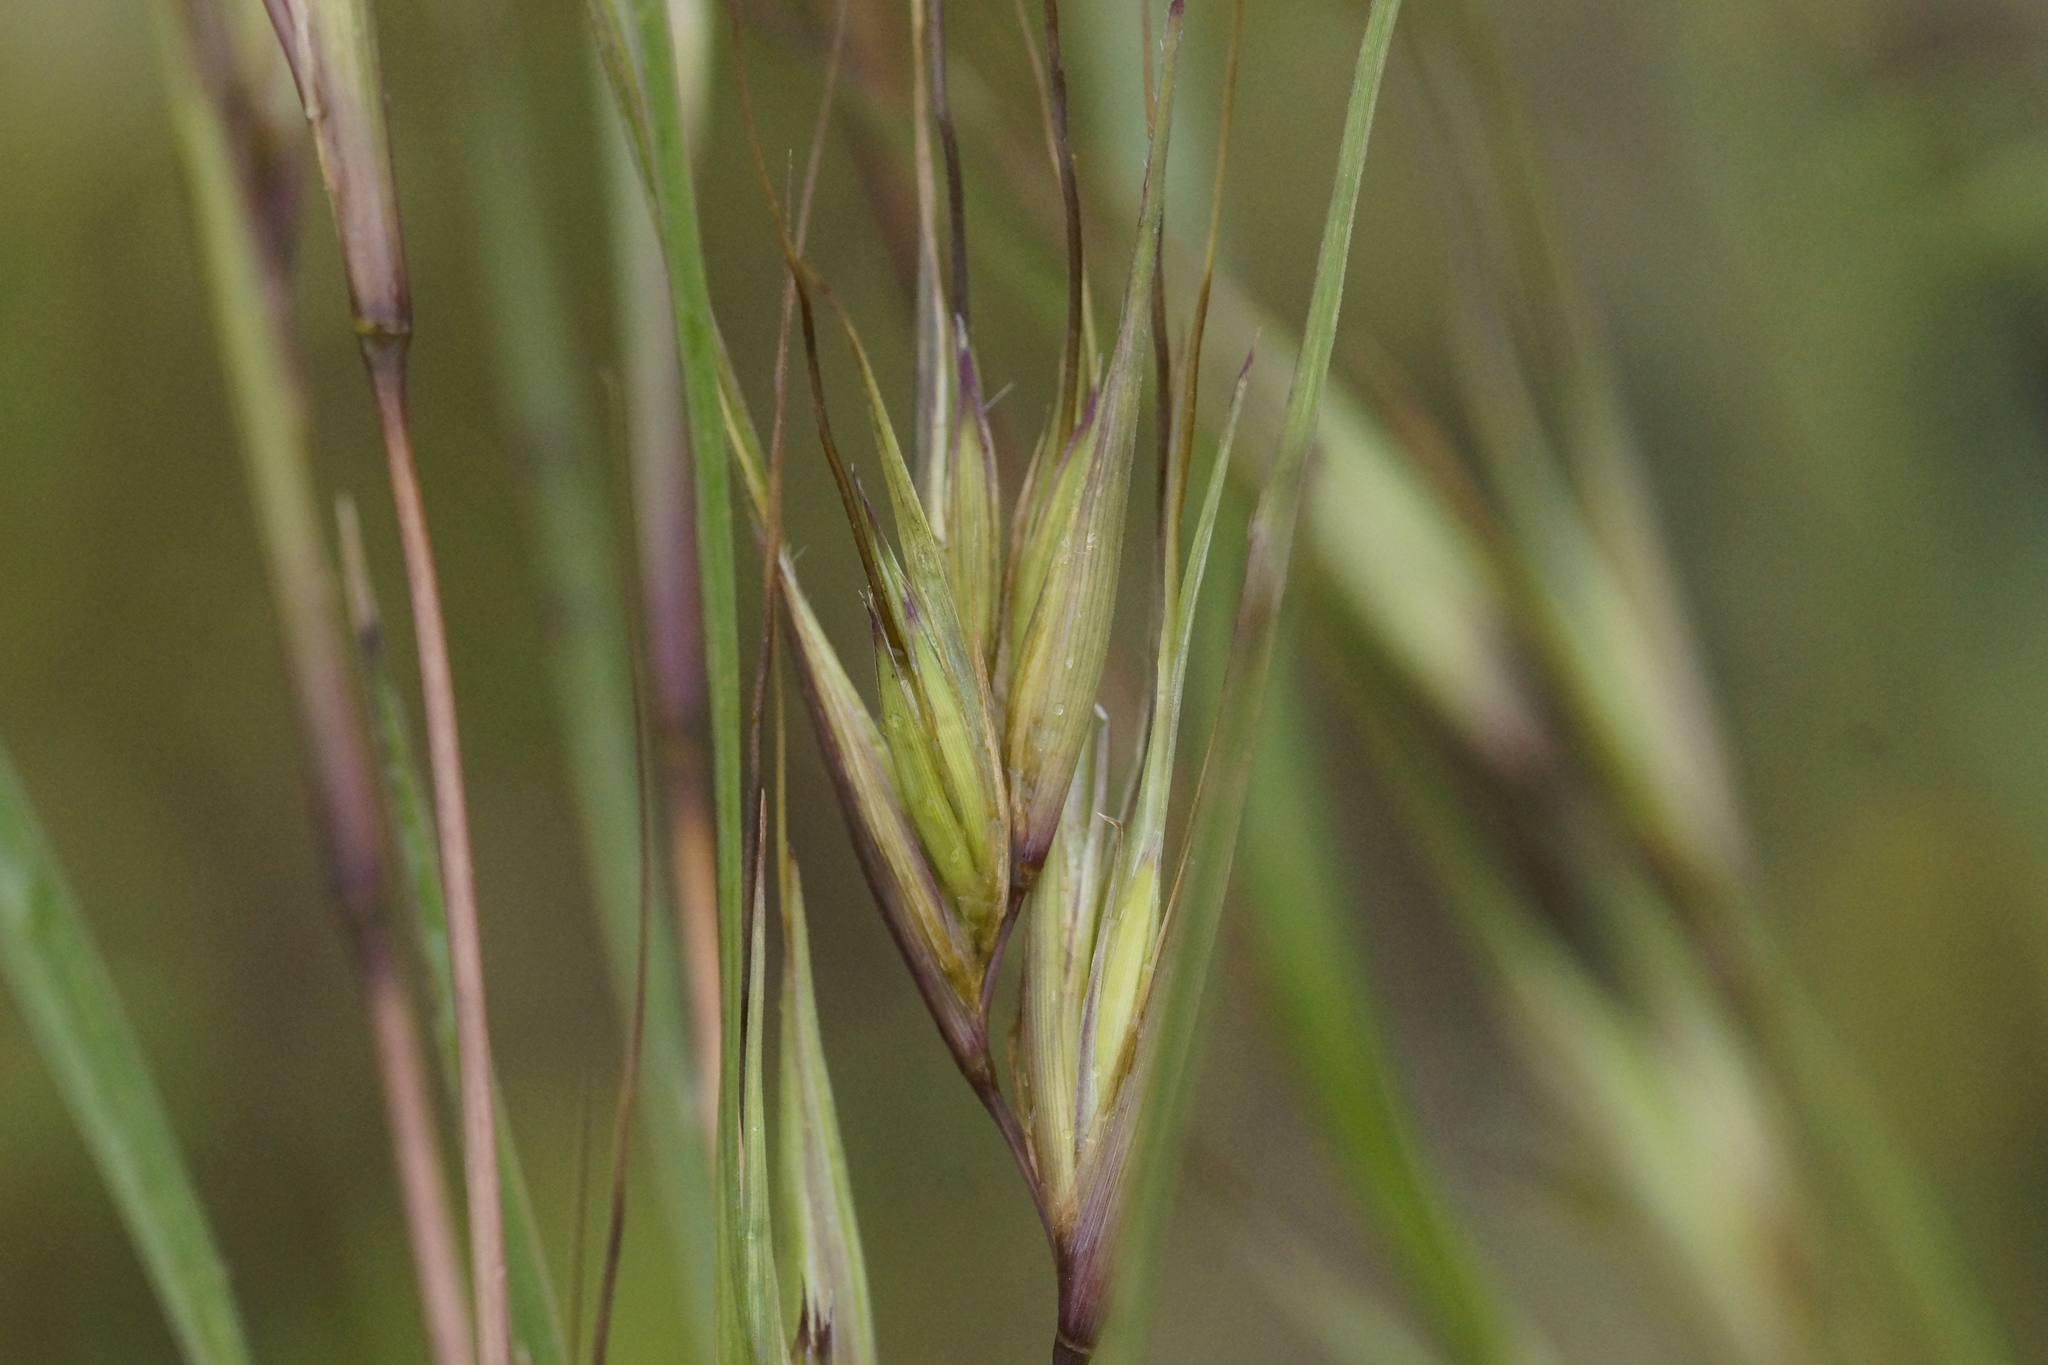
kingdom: Plantae
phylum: Tracheophyta
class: Liliopsida
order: Poales
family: Poaceae
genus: Themeda
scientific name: Themeda triandra
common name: Kangaroo grass
